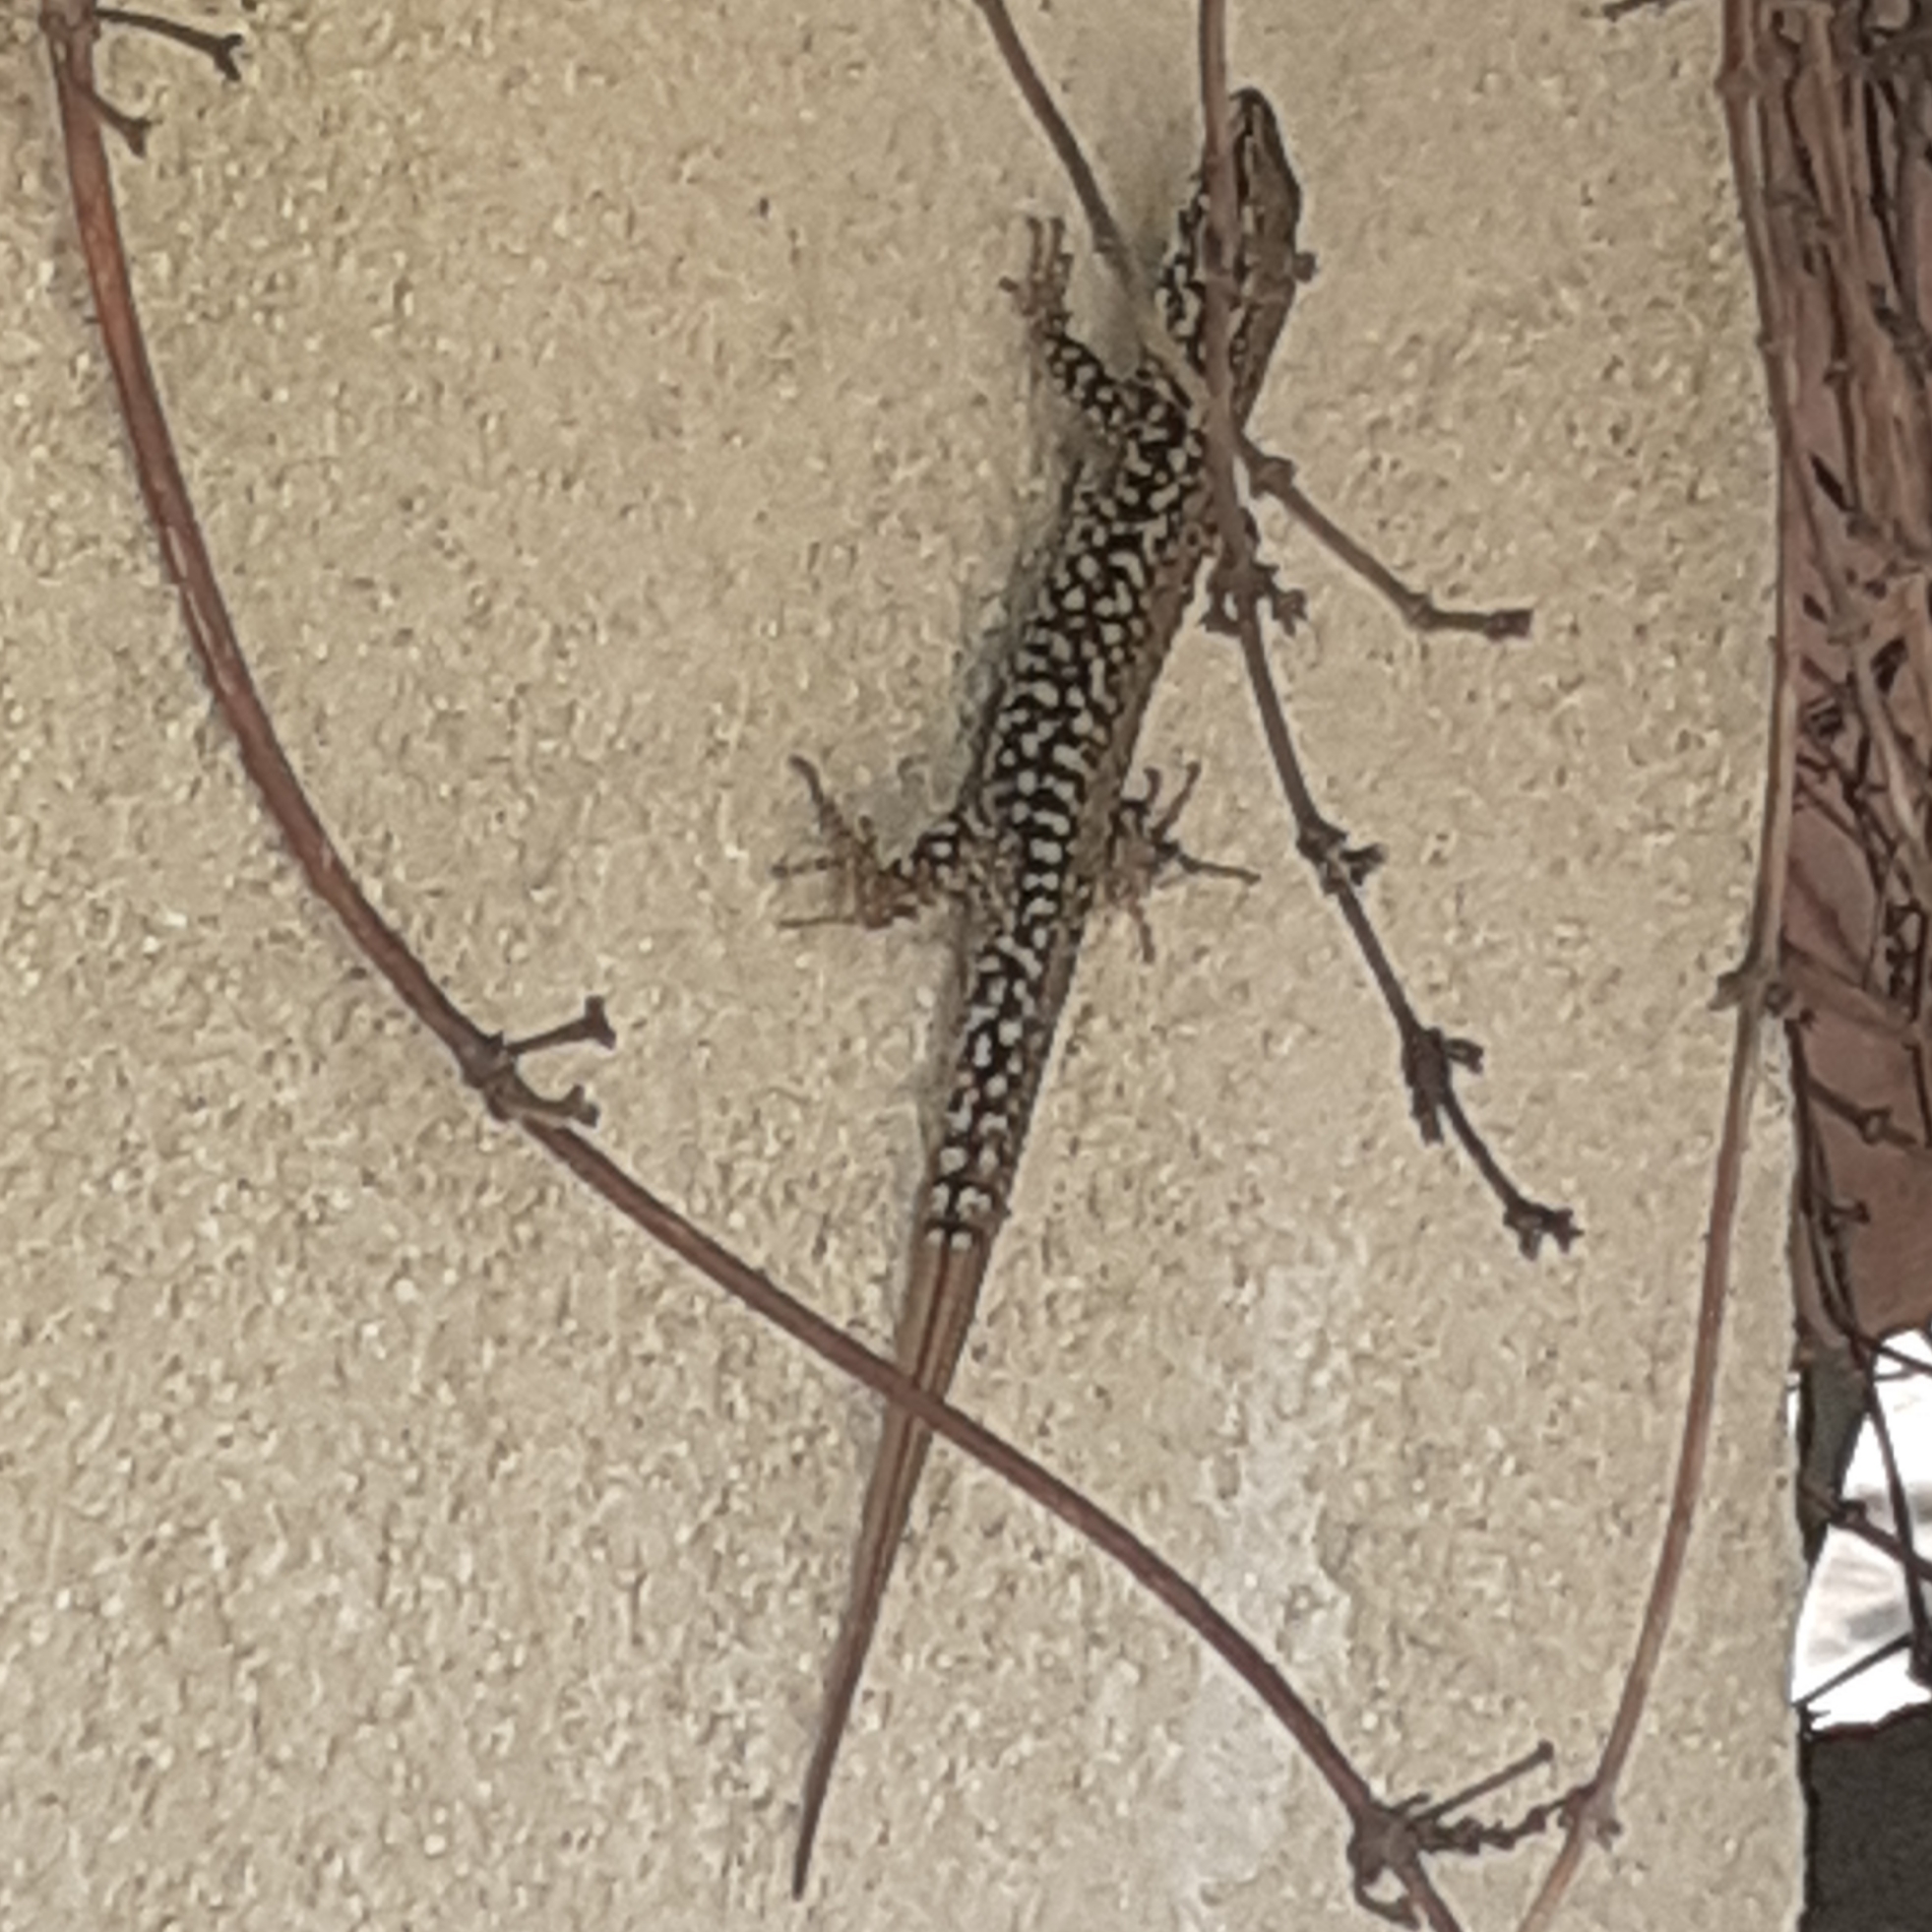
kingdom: Animalia
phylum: Chordata
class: Squamata
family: Lacertidae
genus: Podarcis
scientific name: Podarcis muralis
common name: Common wall lizard
